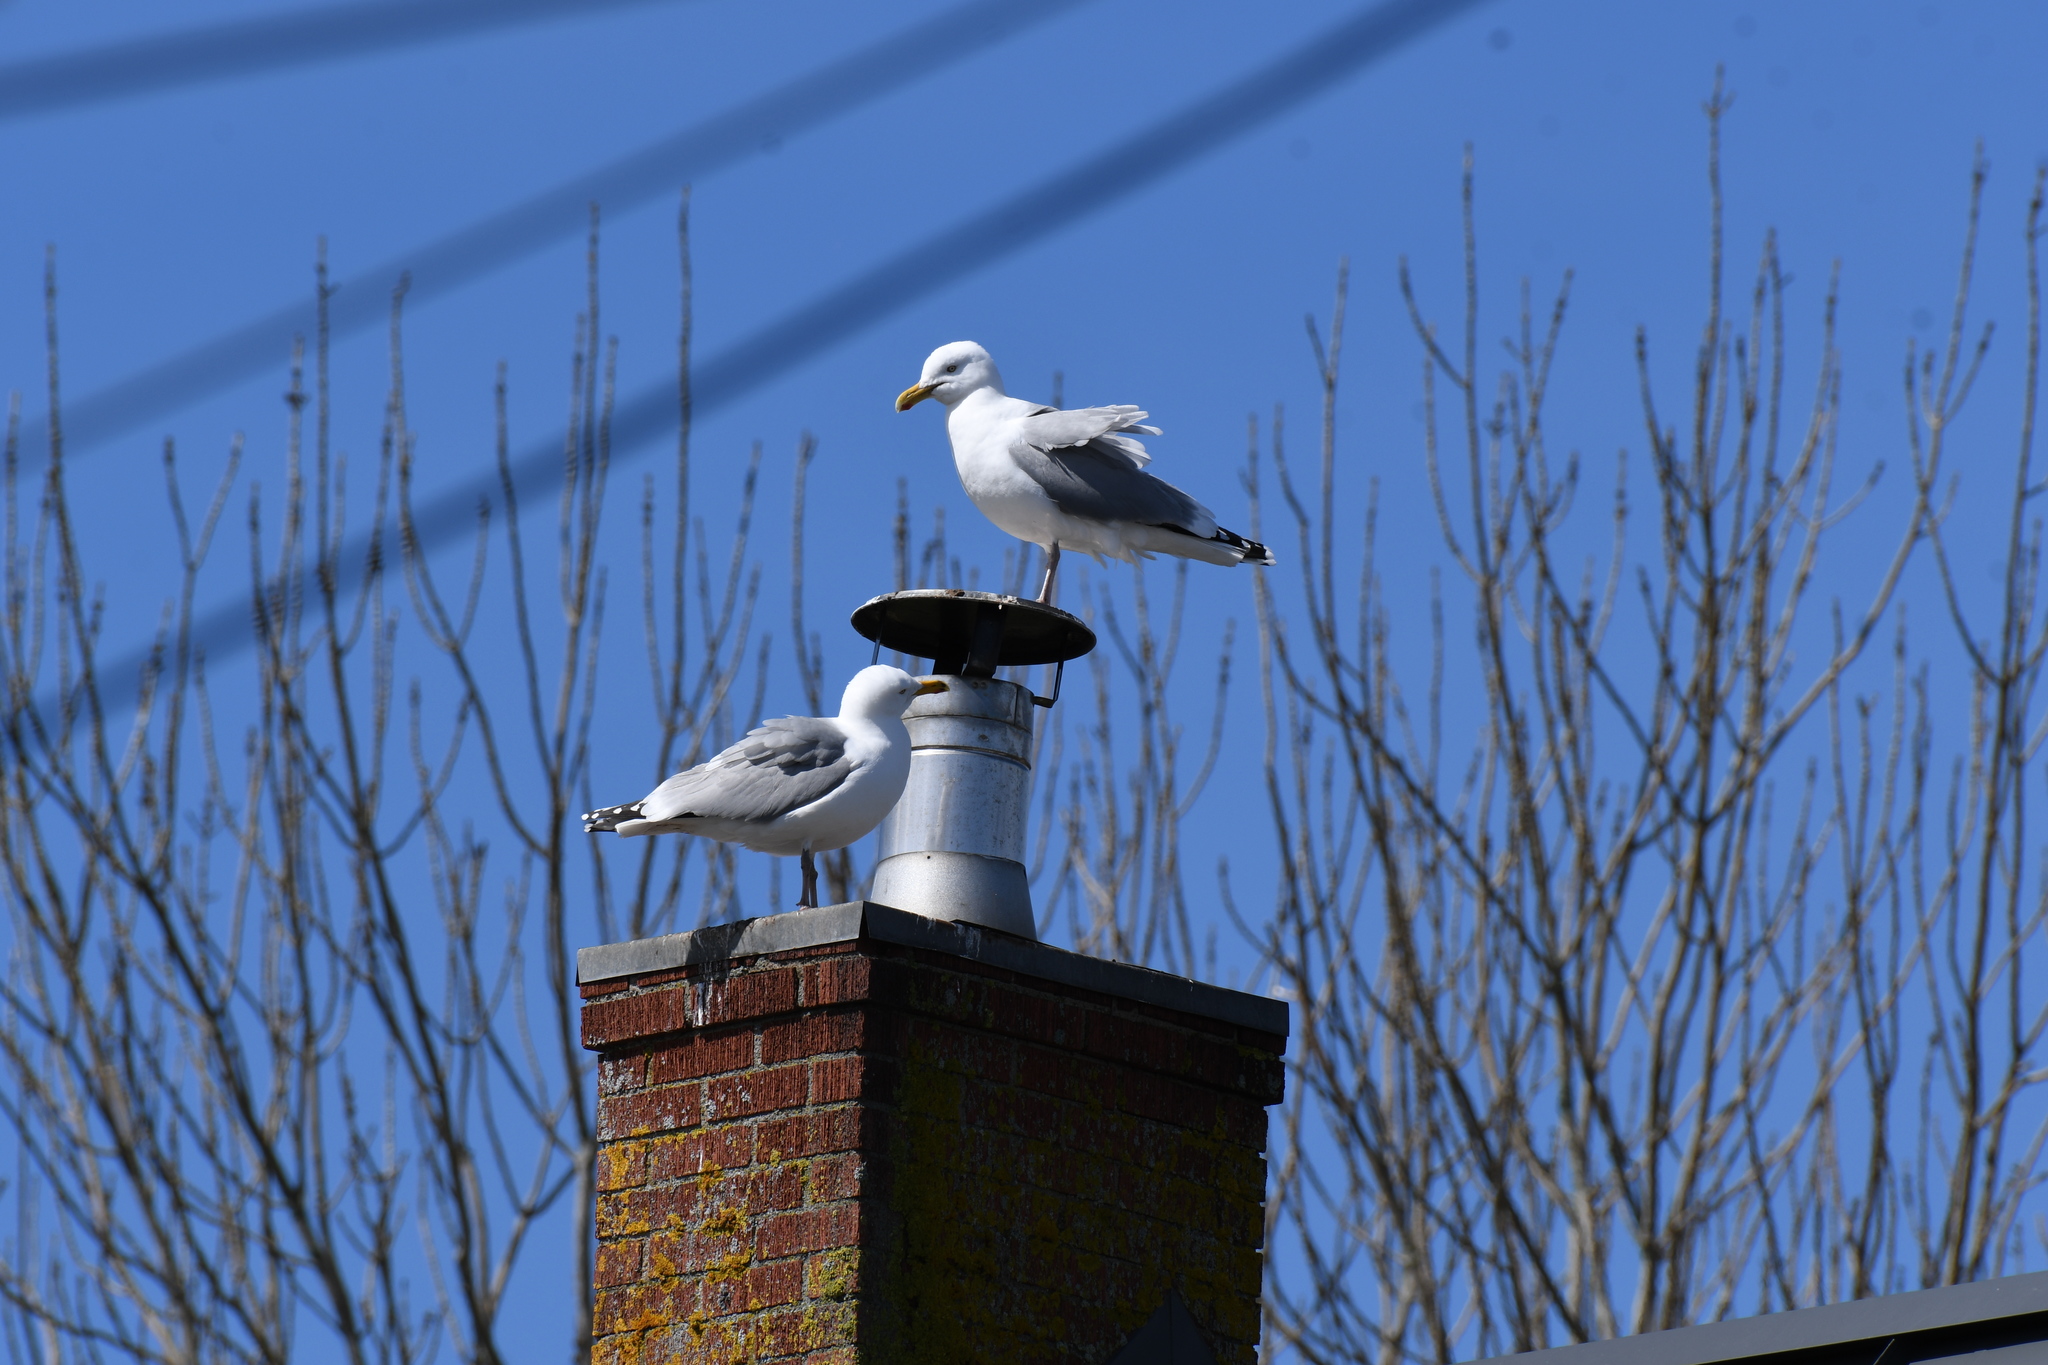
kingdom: Animalia
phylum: Chordata
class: Aves
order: Charadriiformes
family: Laridae
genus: Larus
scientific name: Larus argentatus
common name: Herring gull
